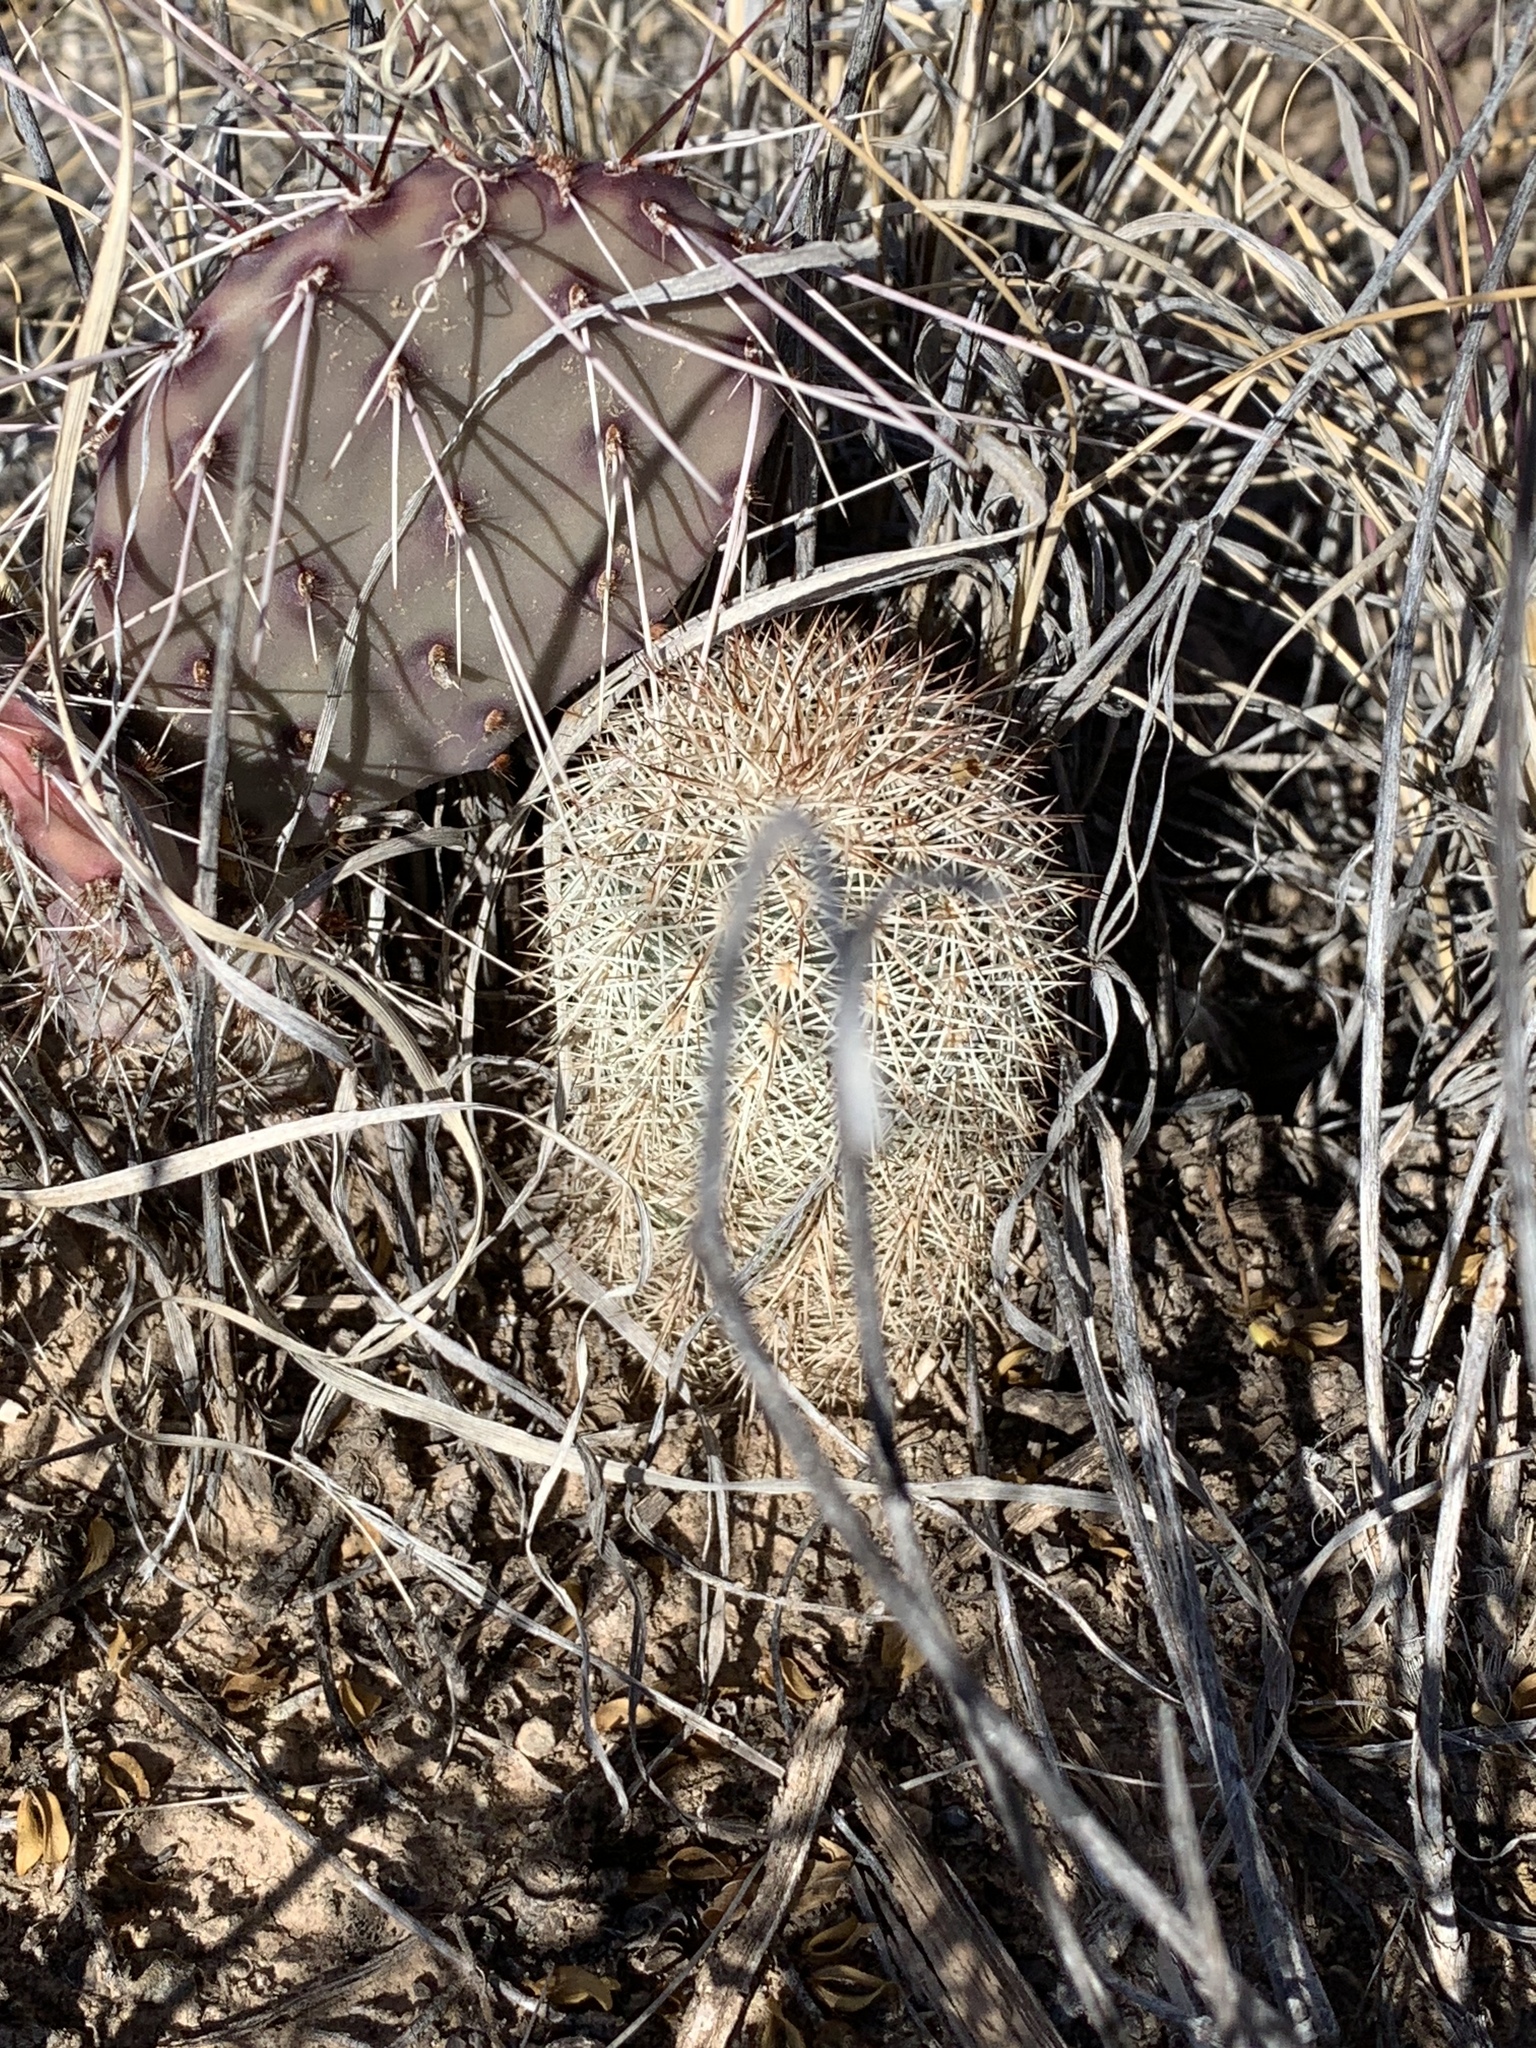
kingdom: Plantae
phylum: Tracheophyta
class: Magnoliopsida
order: Caryophyllales
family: Cactaceae
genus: Echinocereus
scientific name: Echinocereus dasyacanthus
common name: Spiny hedgehog cactus
